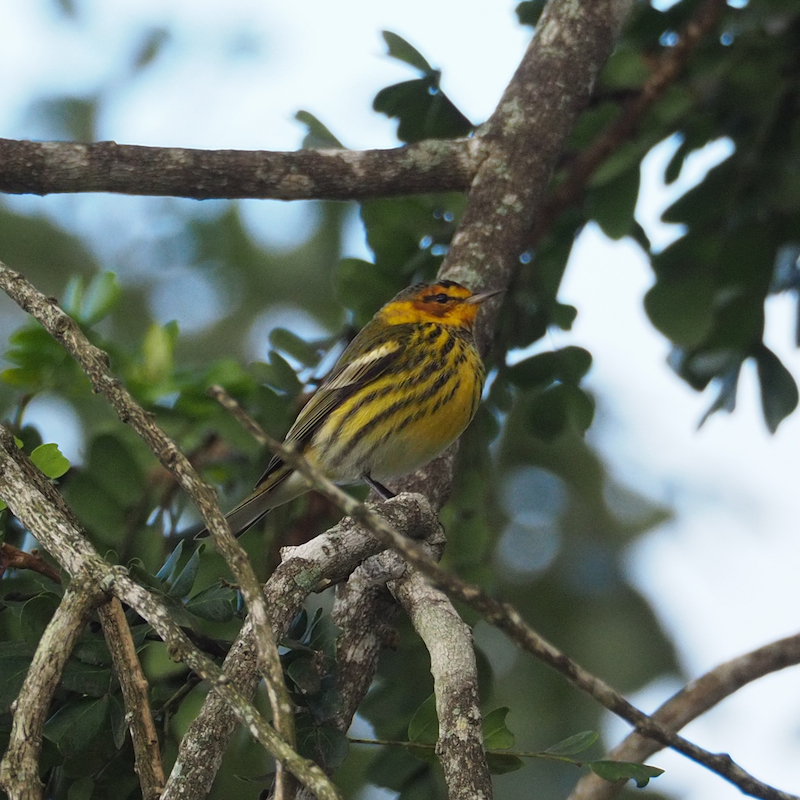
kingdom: Animalia
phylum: Chordata
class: Aves
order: Passeriformes
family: Parulidae
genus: Setophaga
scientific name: Setophaga tigrina
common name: Cape may warbler
